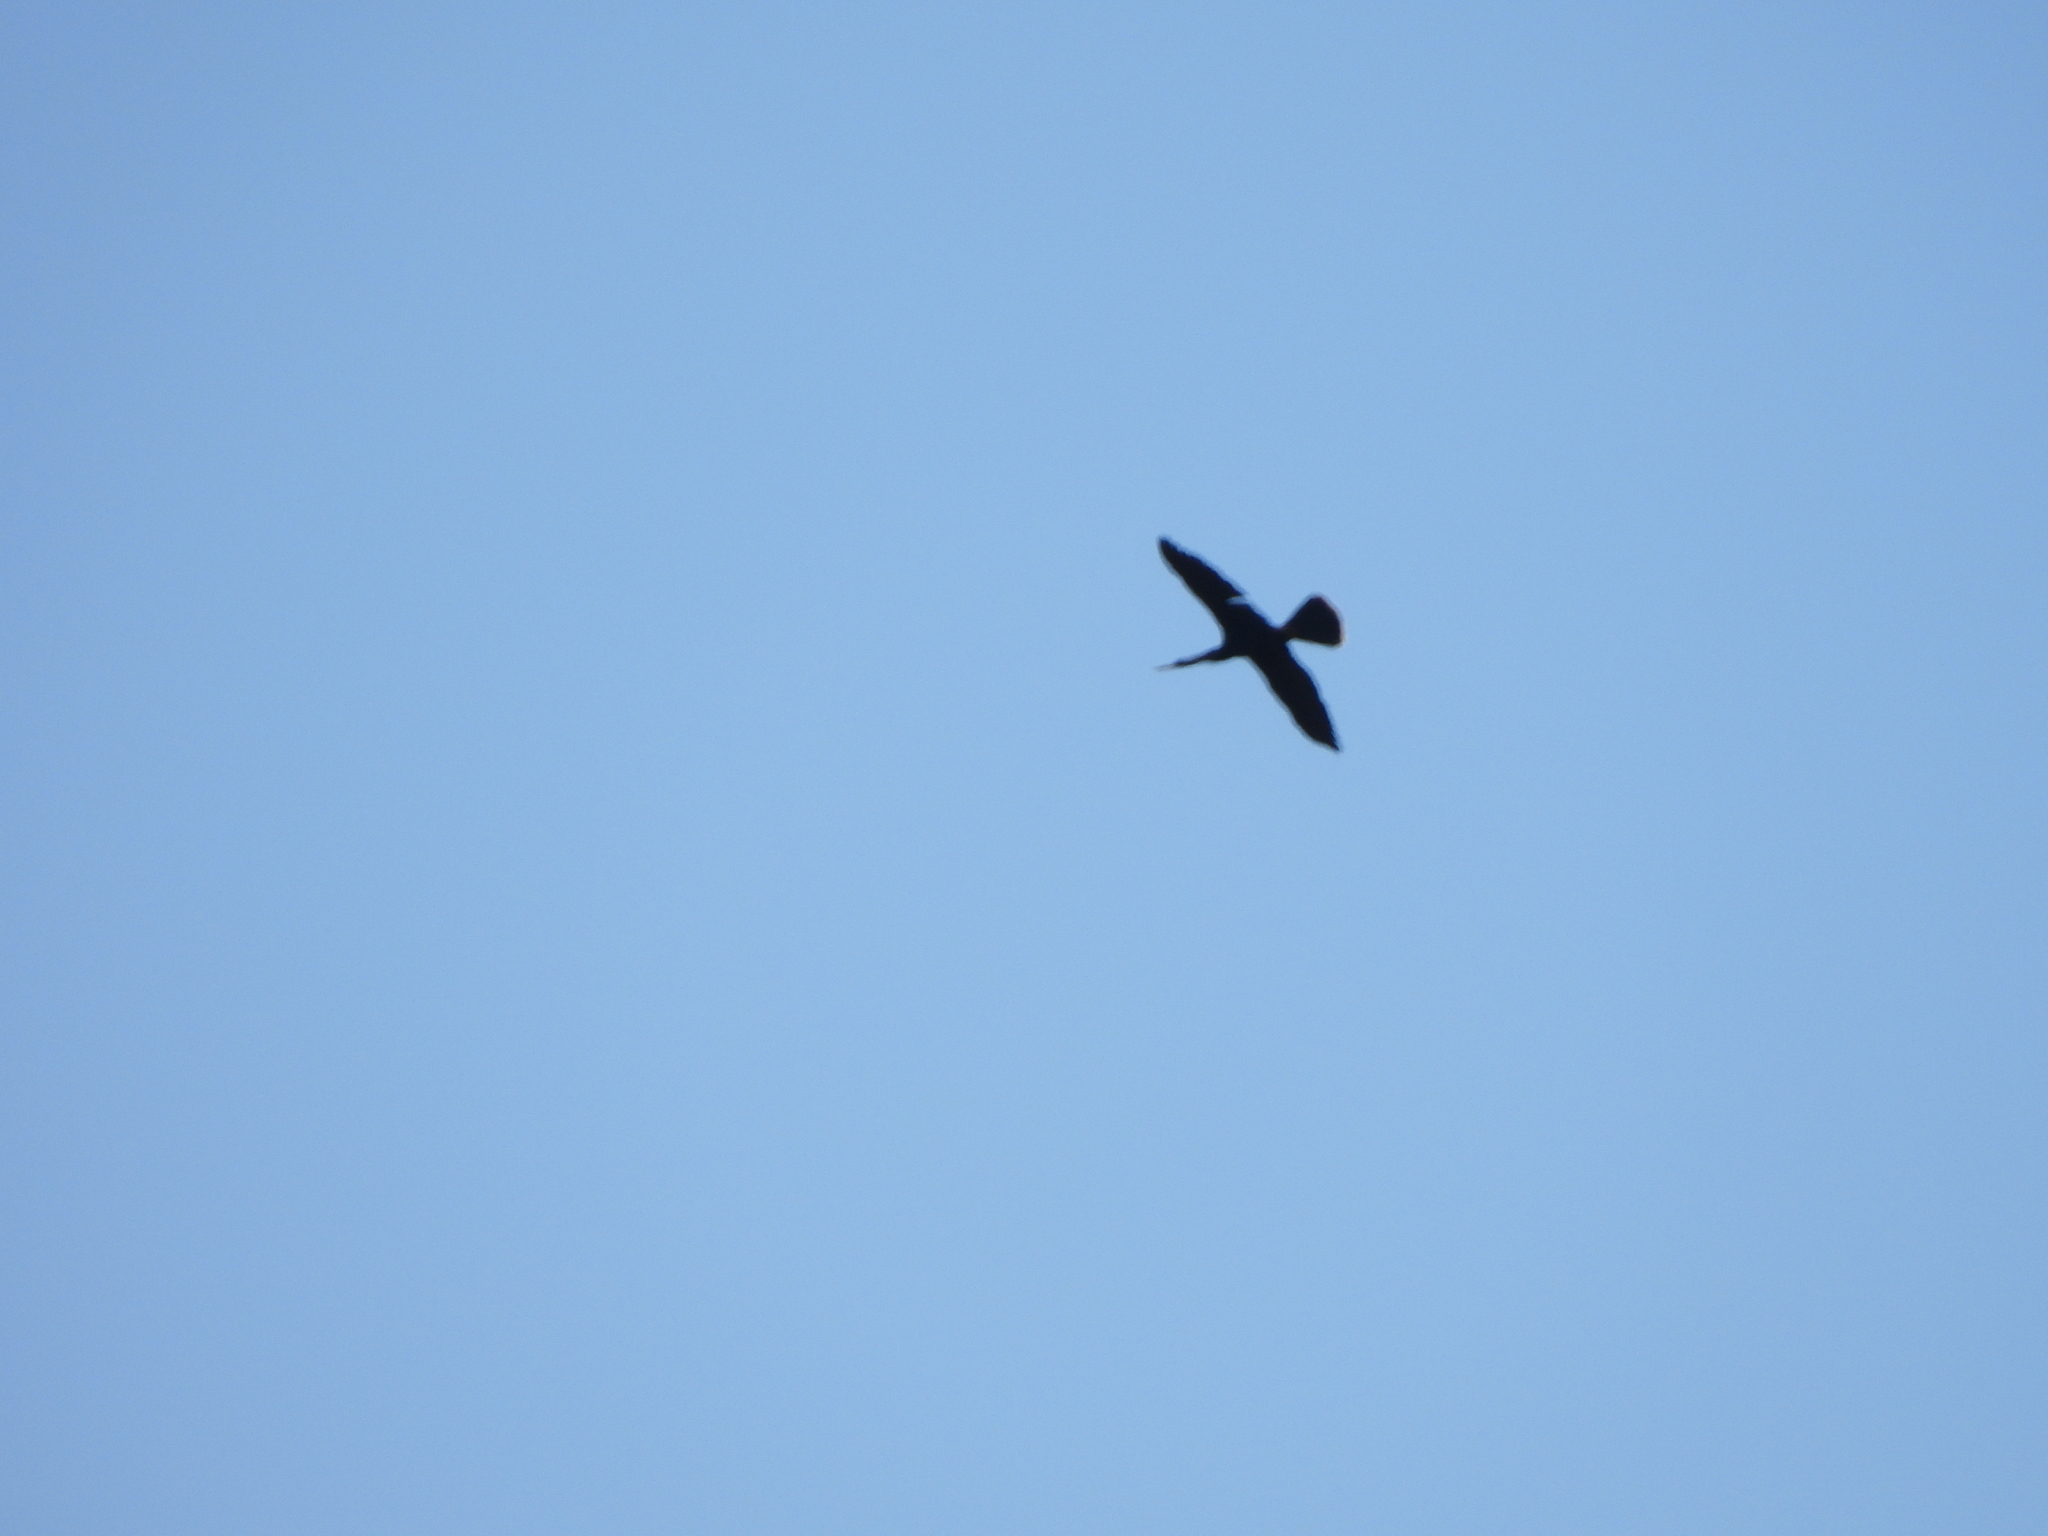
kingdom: Animalia
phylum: Chordata
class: Aves
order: Suliformes
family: Anhingidae
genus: Anhinga
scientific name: Anhinga anhinga
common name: Anhinga
